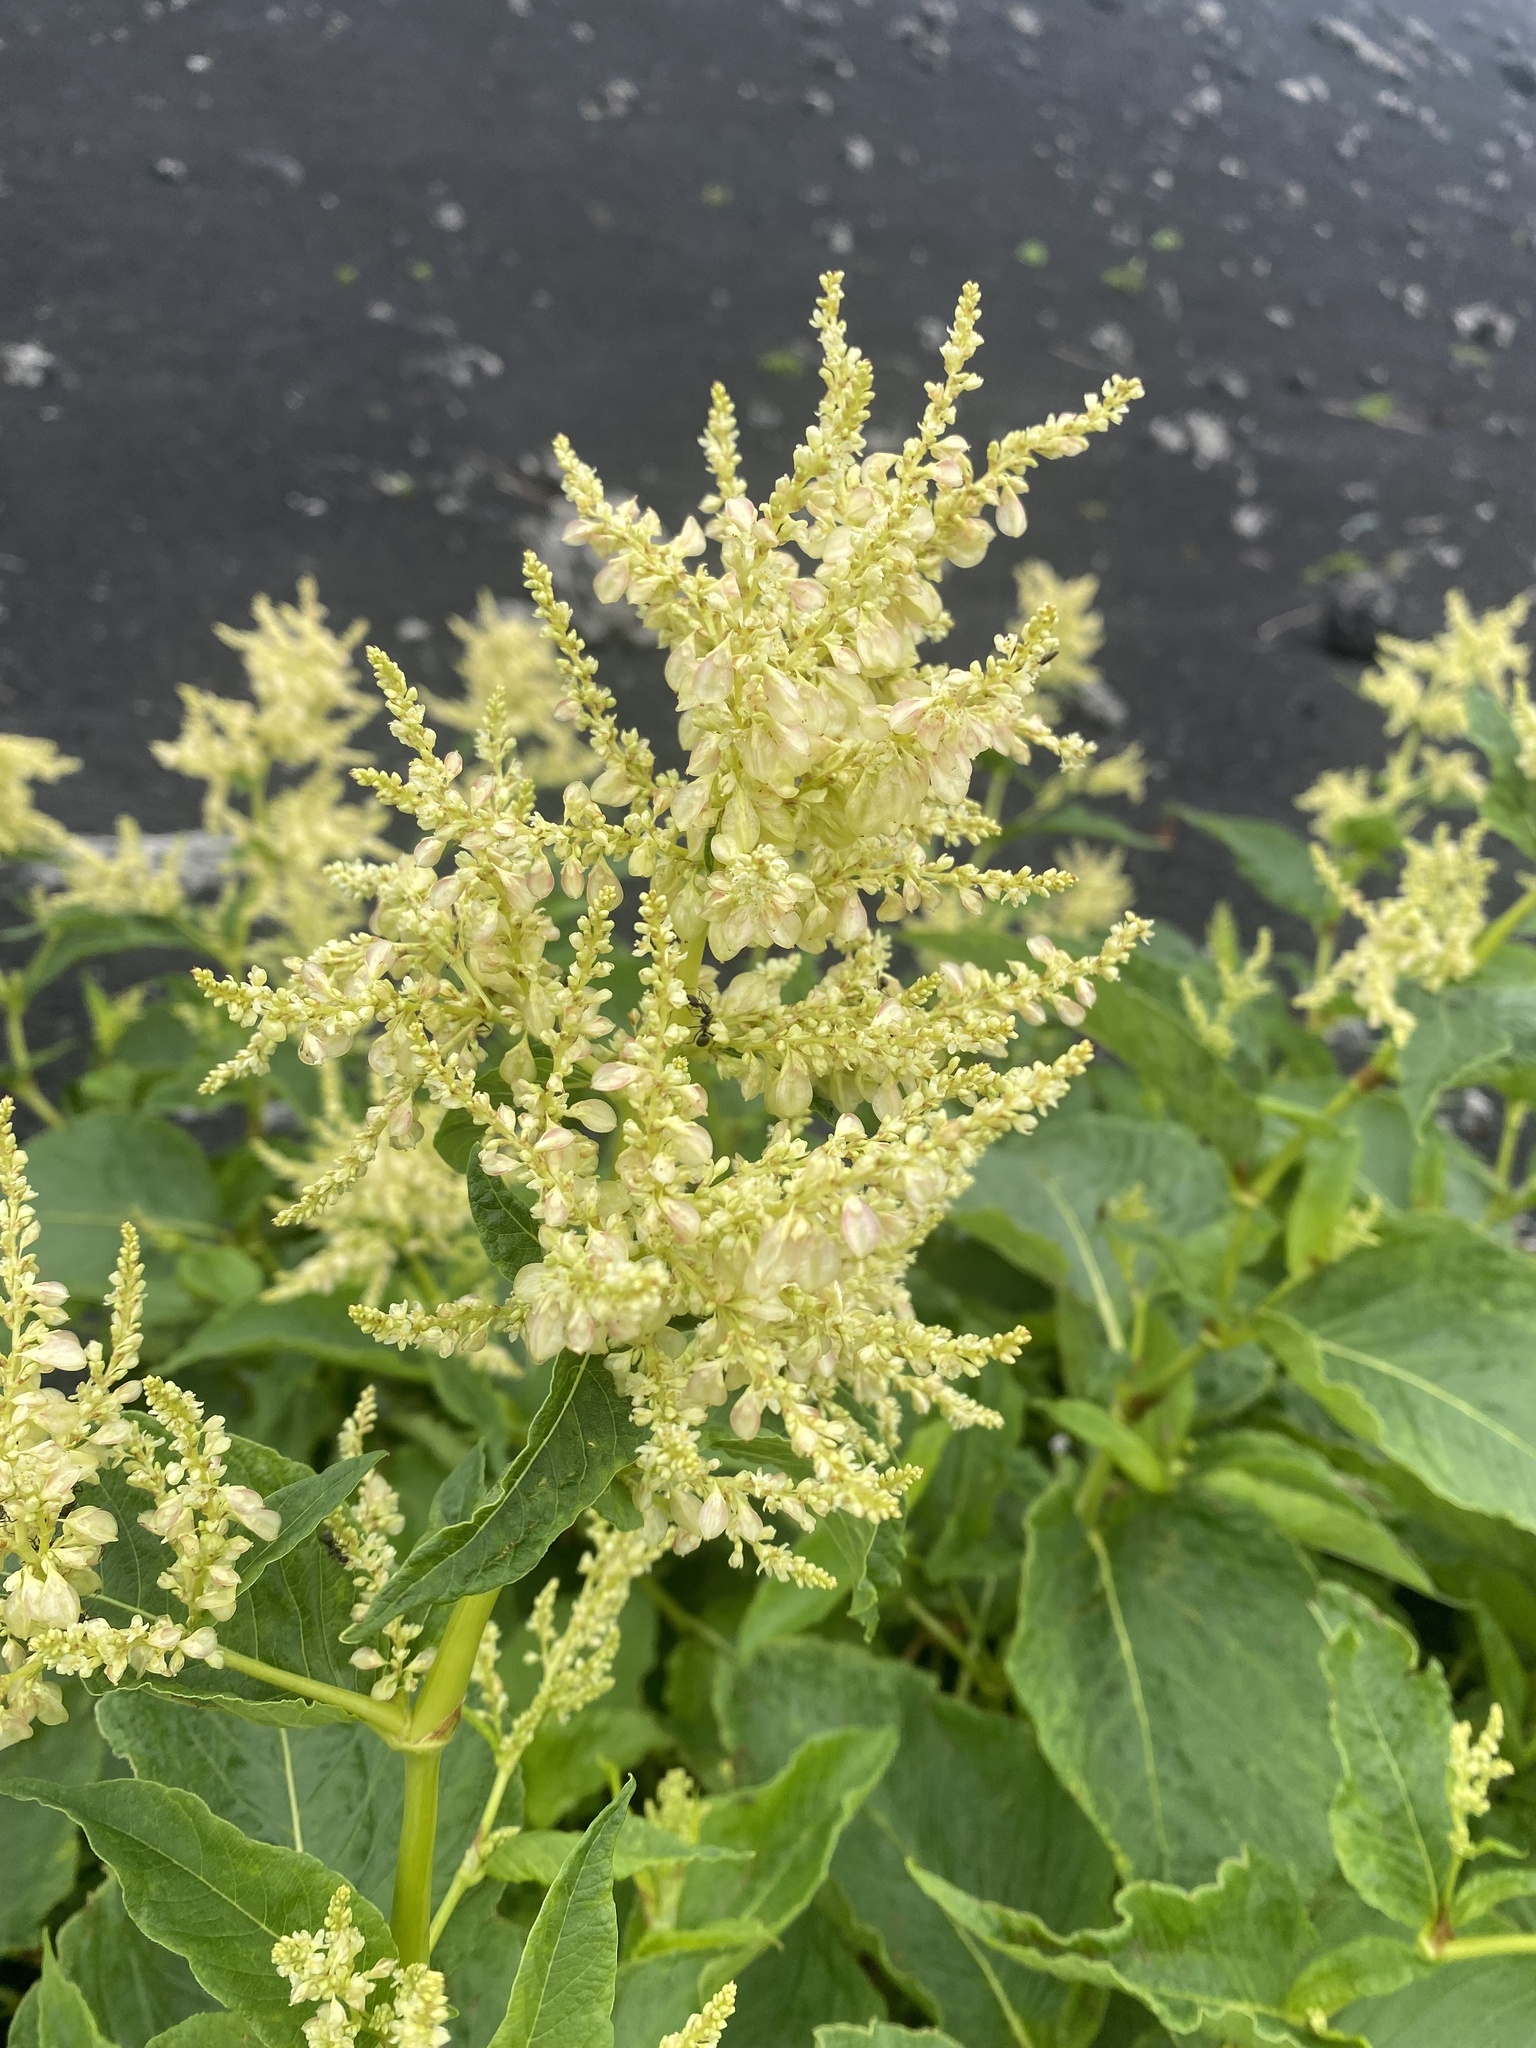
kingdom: Plantae
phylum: Tracheophyta
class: Magnoliopsida
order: Caryophyllales
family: Polygonaceae
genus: Koenigia
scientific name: Koenigia weyrichii
